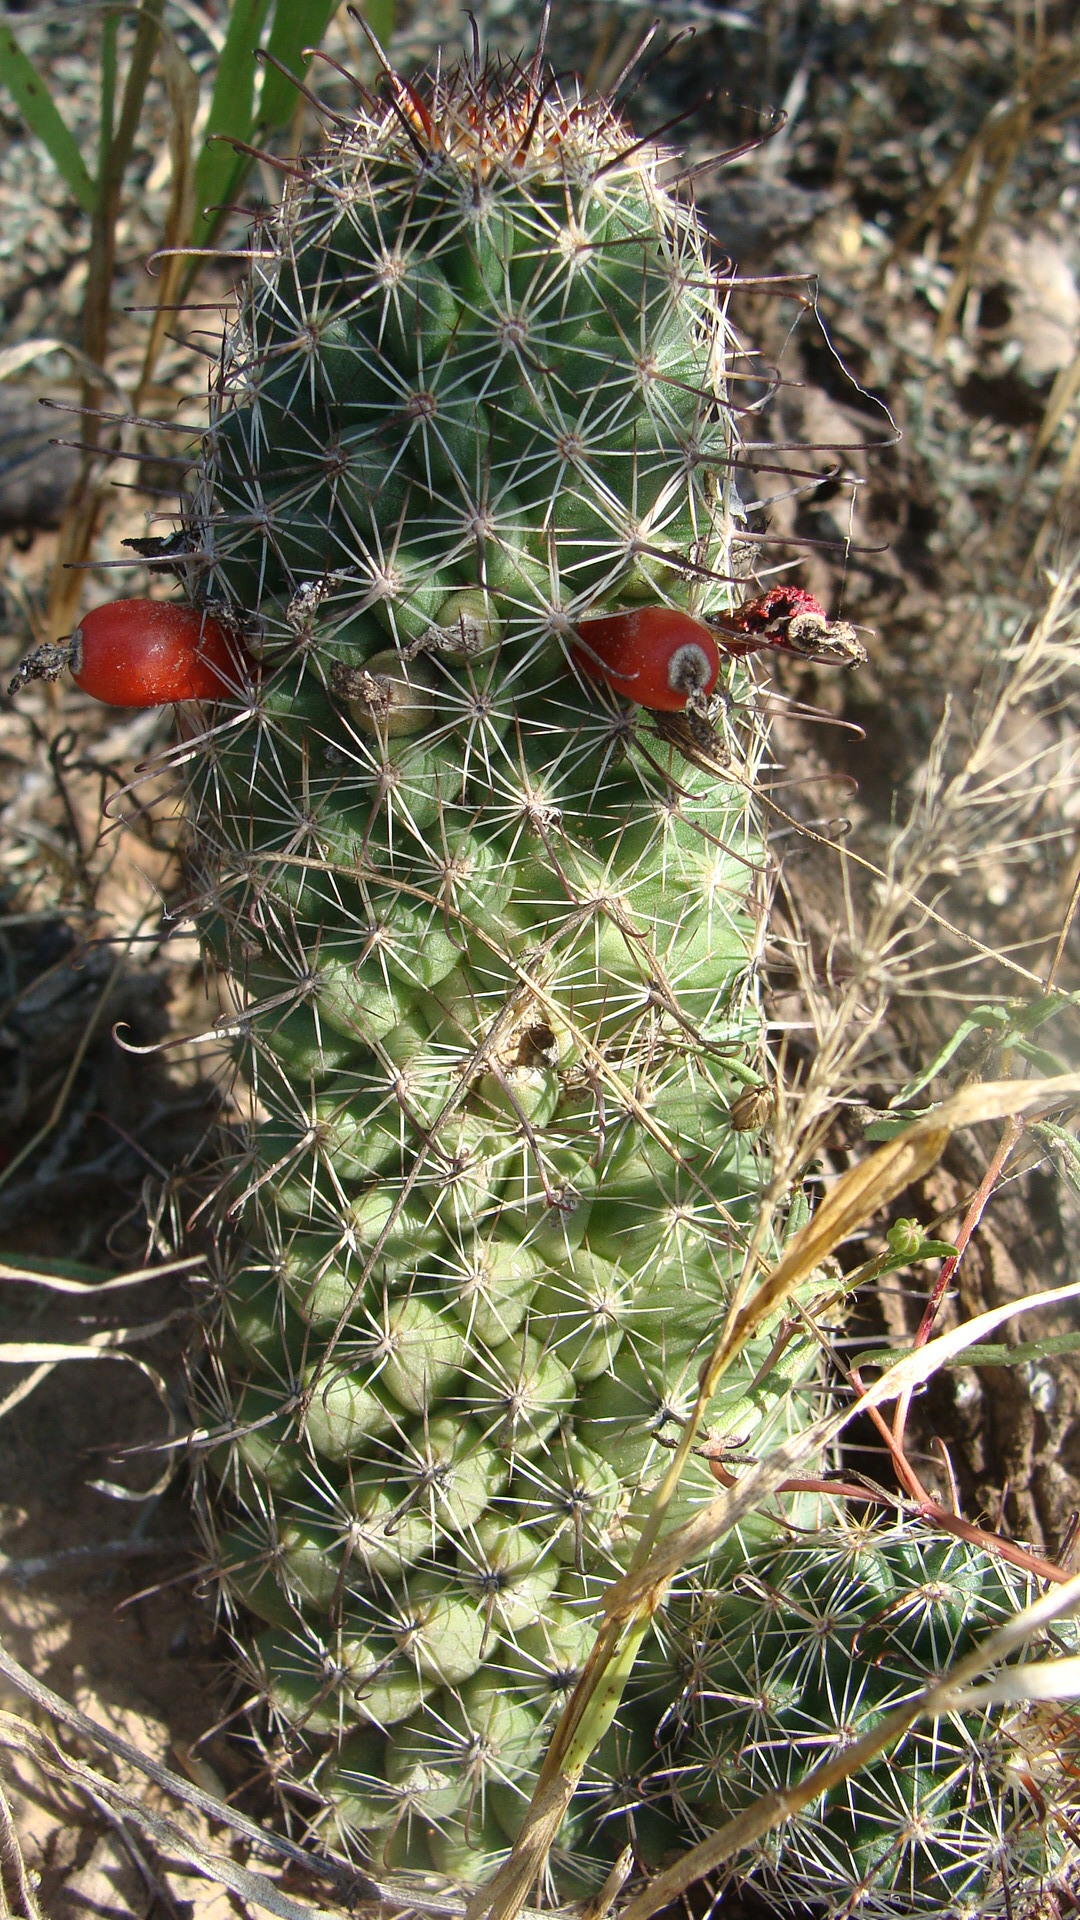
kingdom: Plantae
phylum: Tracheophyta
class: Magnoliopsida
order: Caryophyllales
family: Cactaceae
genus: Cochemiea
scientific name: Cochemiea mazatlanensis
